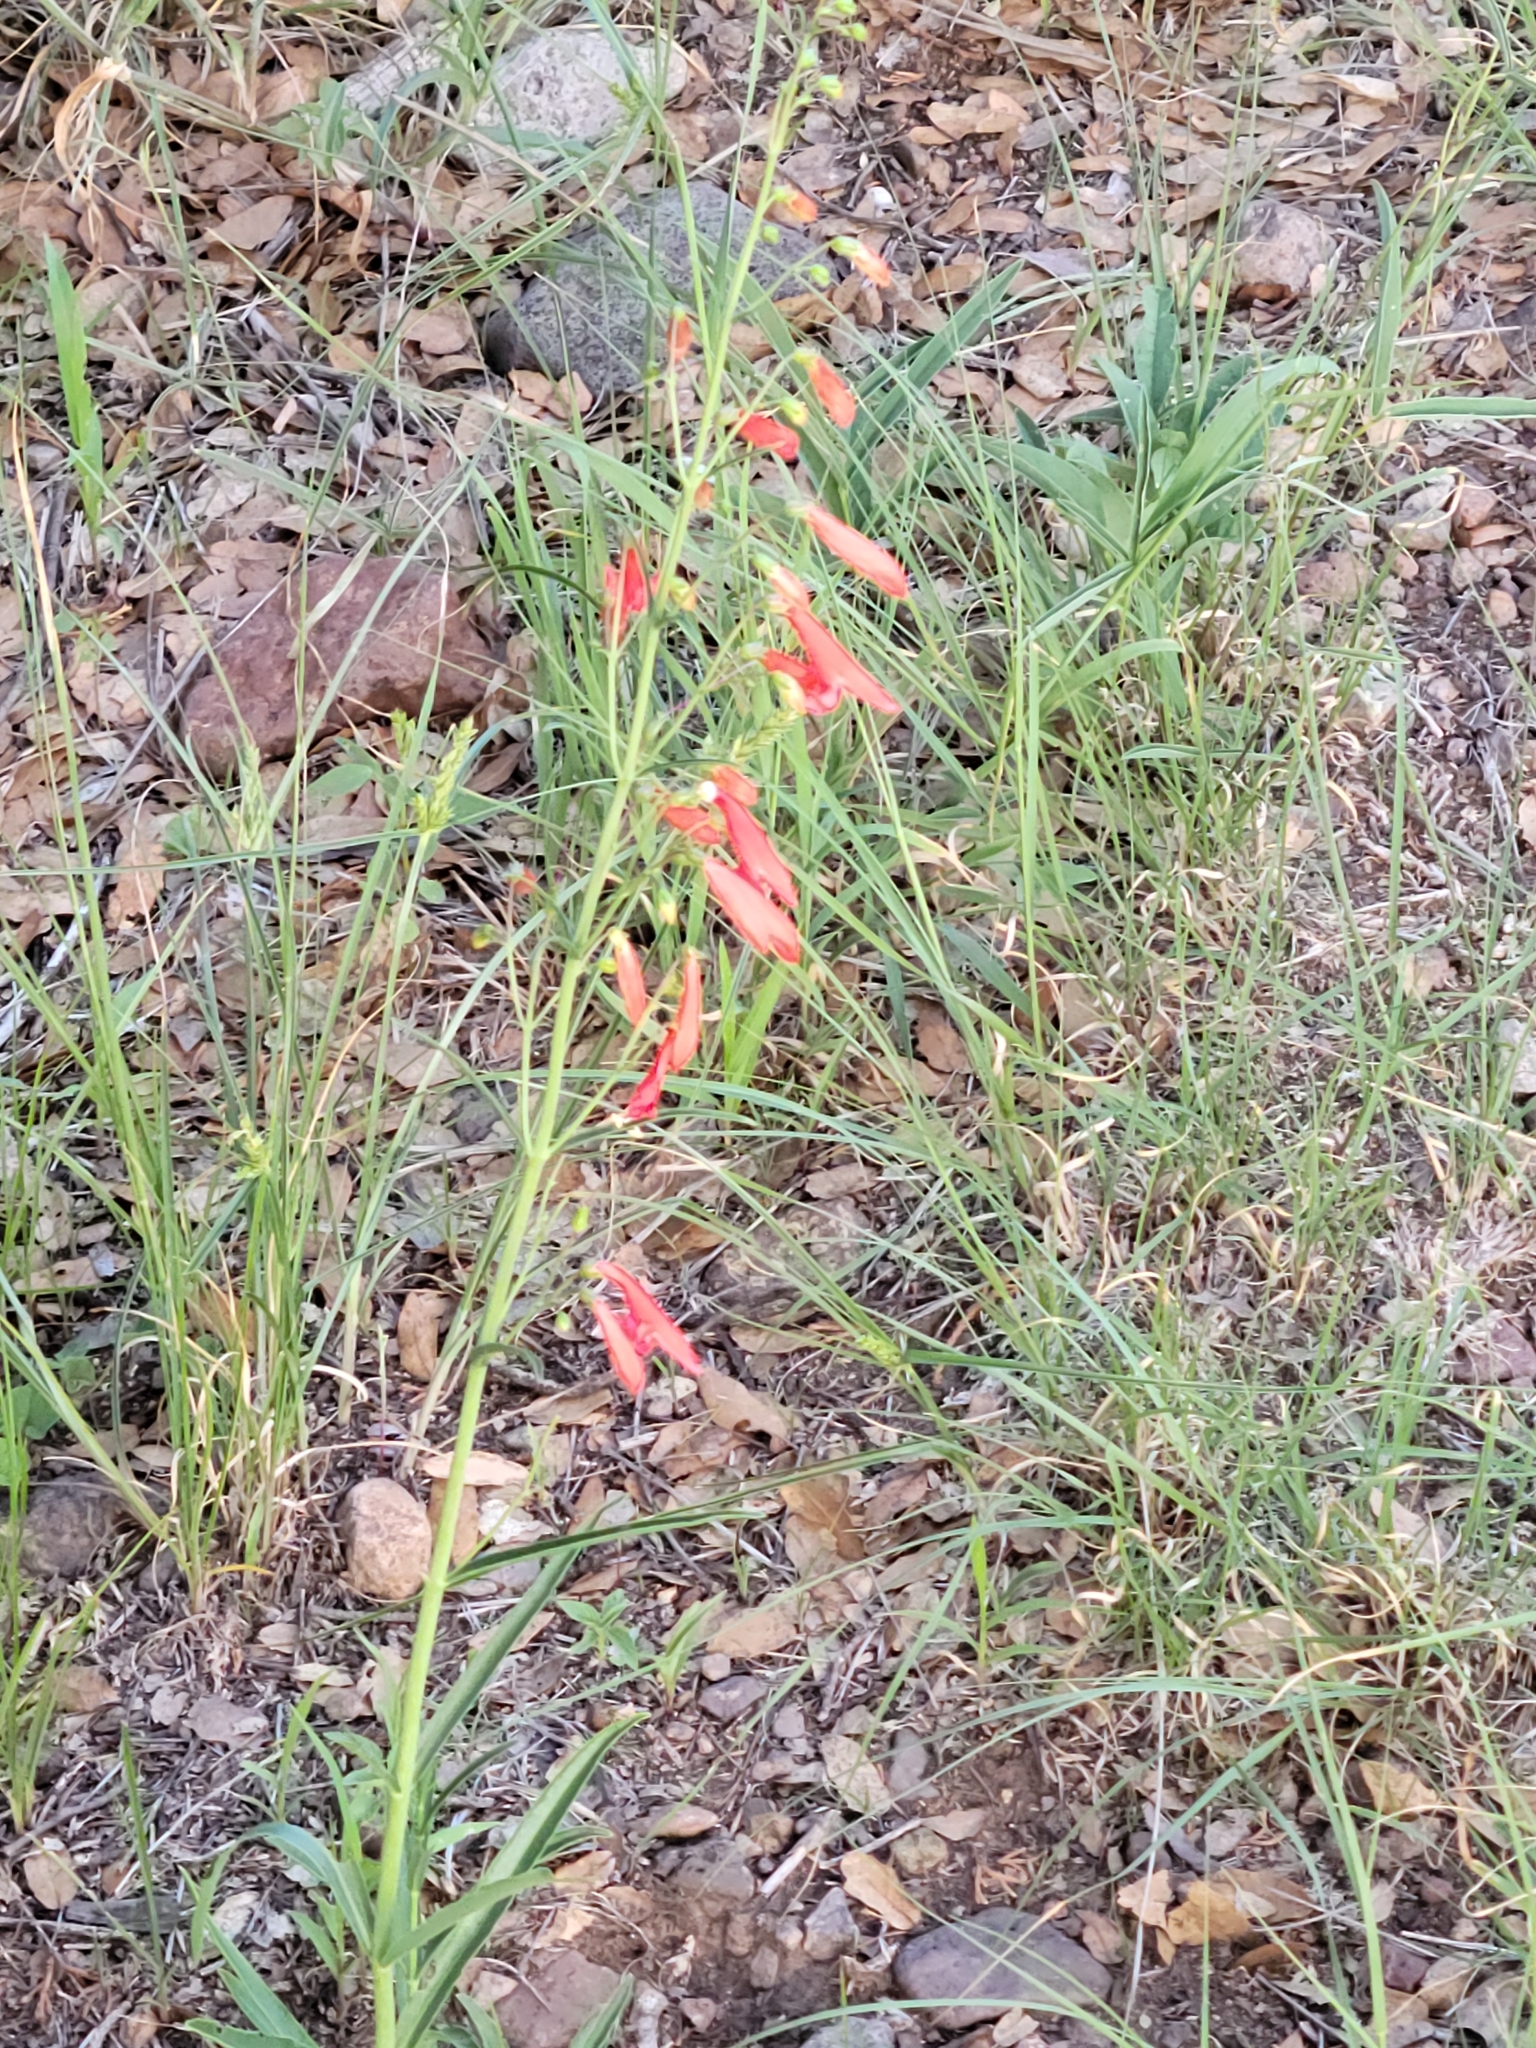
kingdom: Plantae
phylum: Tracheophyta
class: Magnoliopsida
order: Lamiales
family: Plantaginaceae
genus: Penstemon
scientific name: Penstemon barbatus
